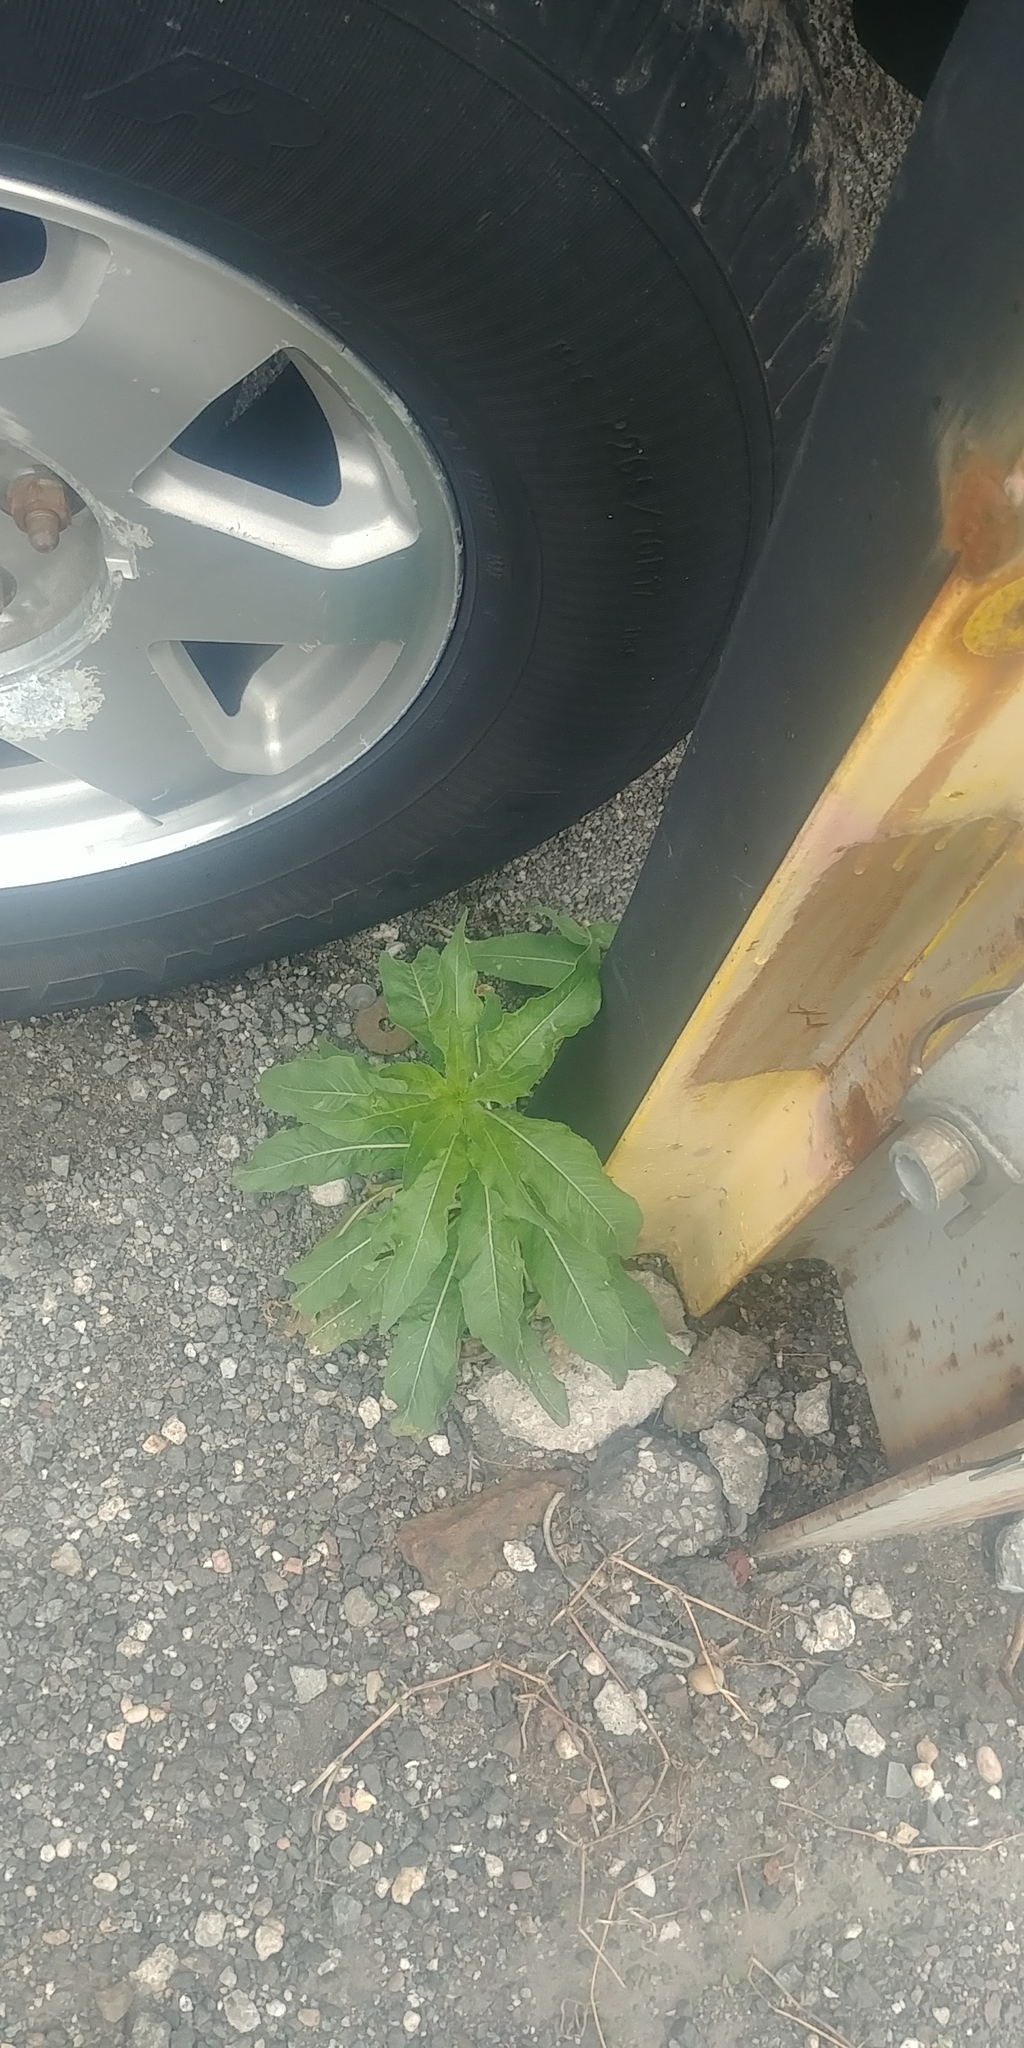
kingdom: Plantae
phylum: Tracheophyta
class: Magnoliopsida
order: Myrtales
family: Onagraceae
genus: Oenothera
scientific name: Oenothera biennis
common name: Common evening-primrose
